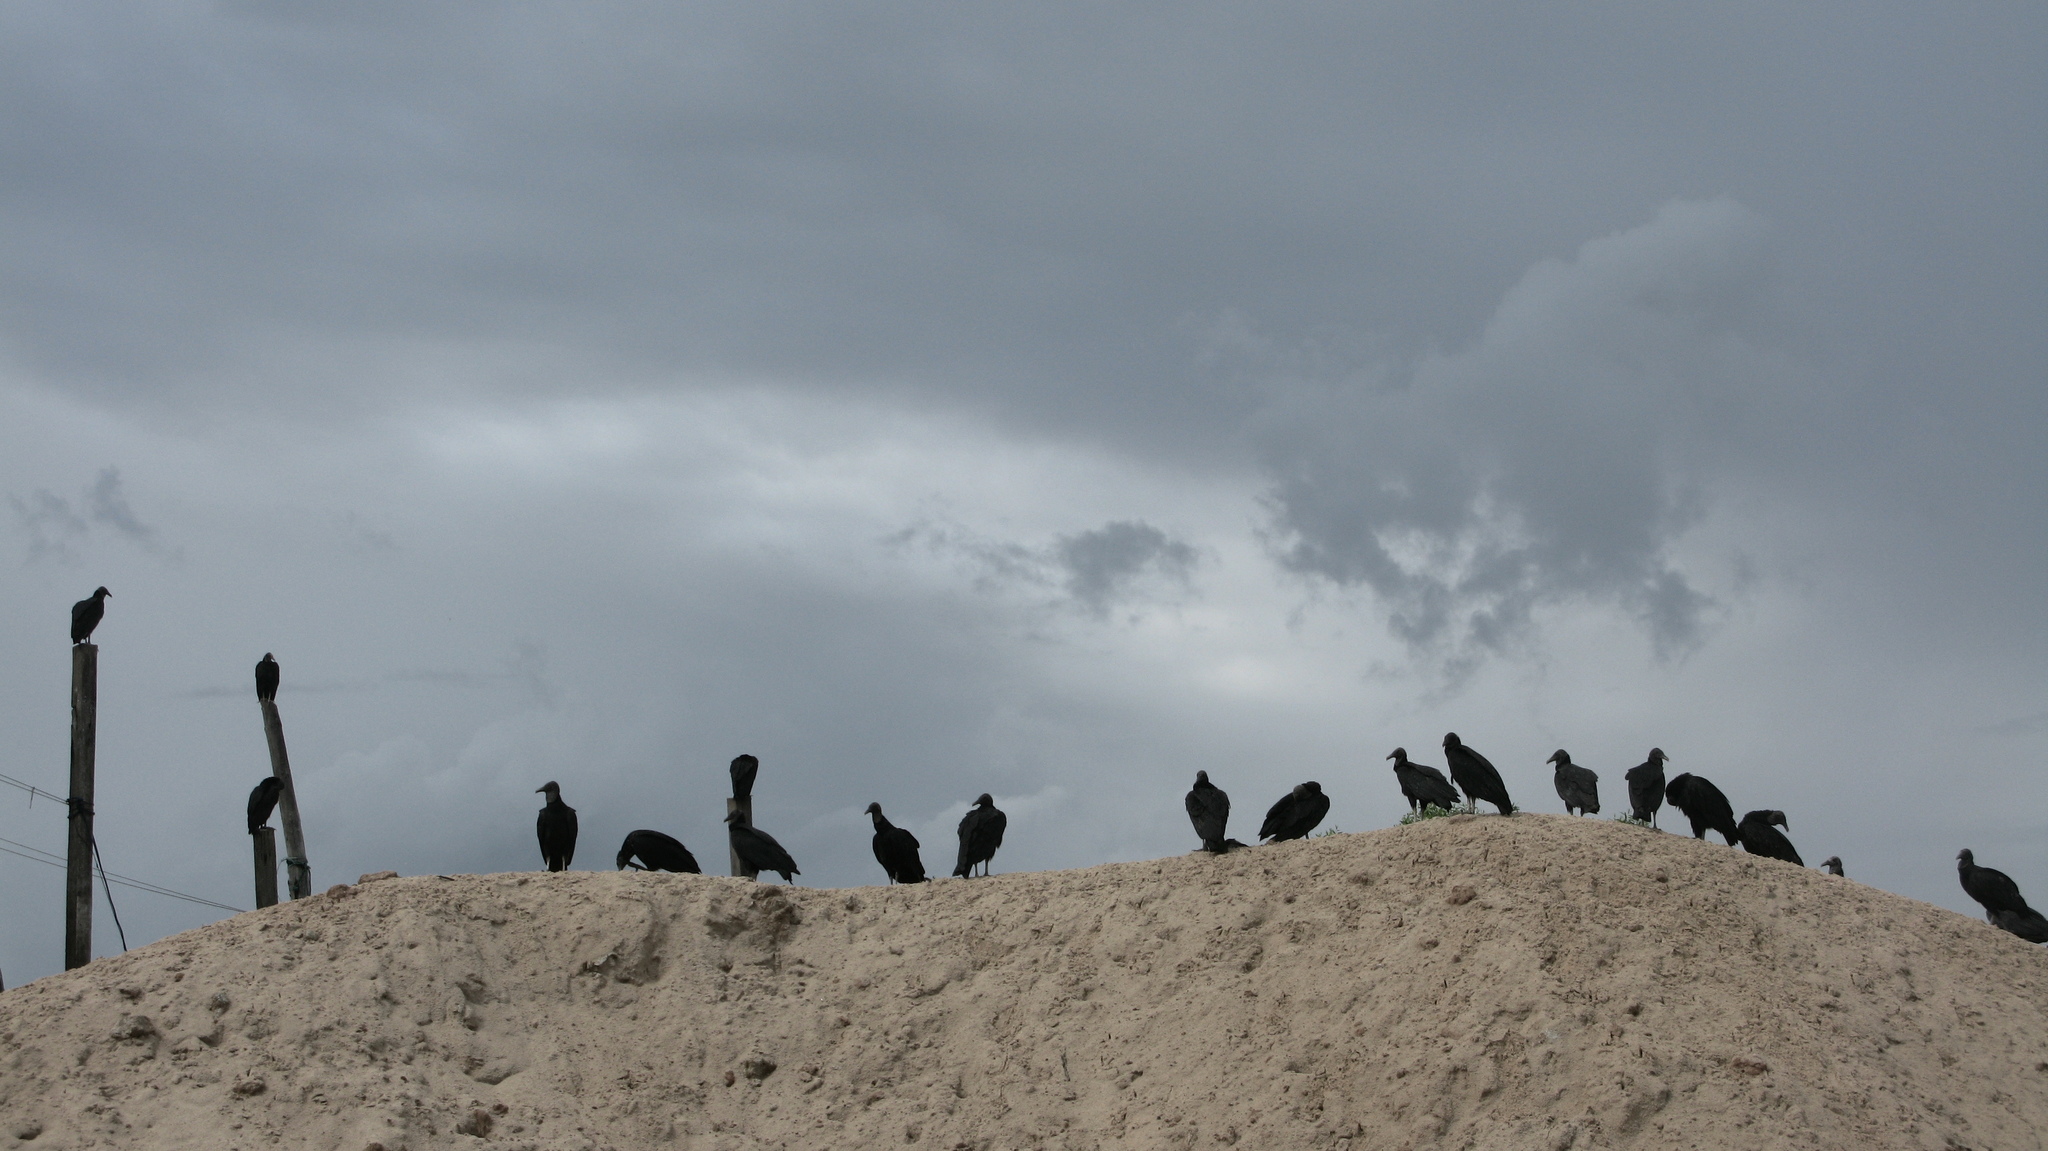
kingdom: Animalia
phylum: Chordata
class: Aves
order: Accipitriformes
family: Cathartidae
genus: Coragyps
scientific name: Coragyps atratus
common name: Black vulture
